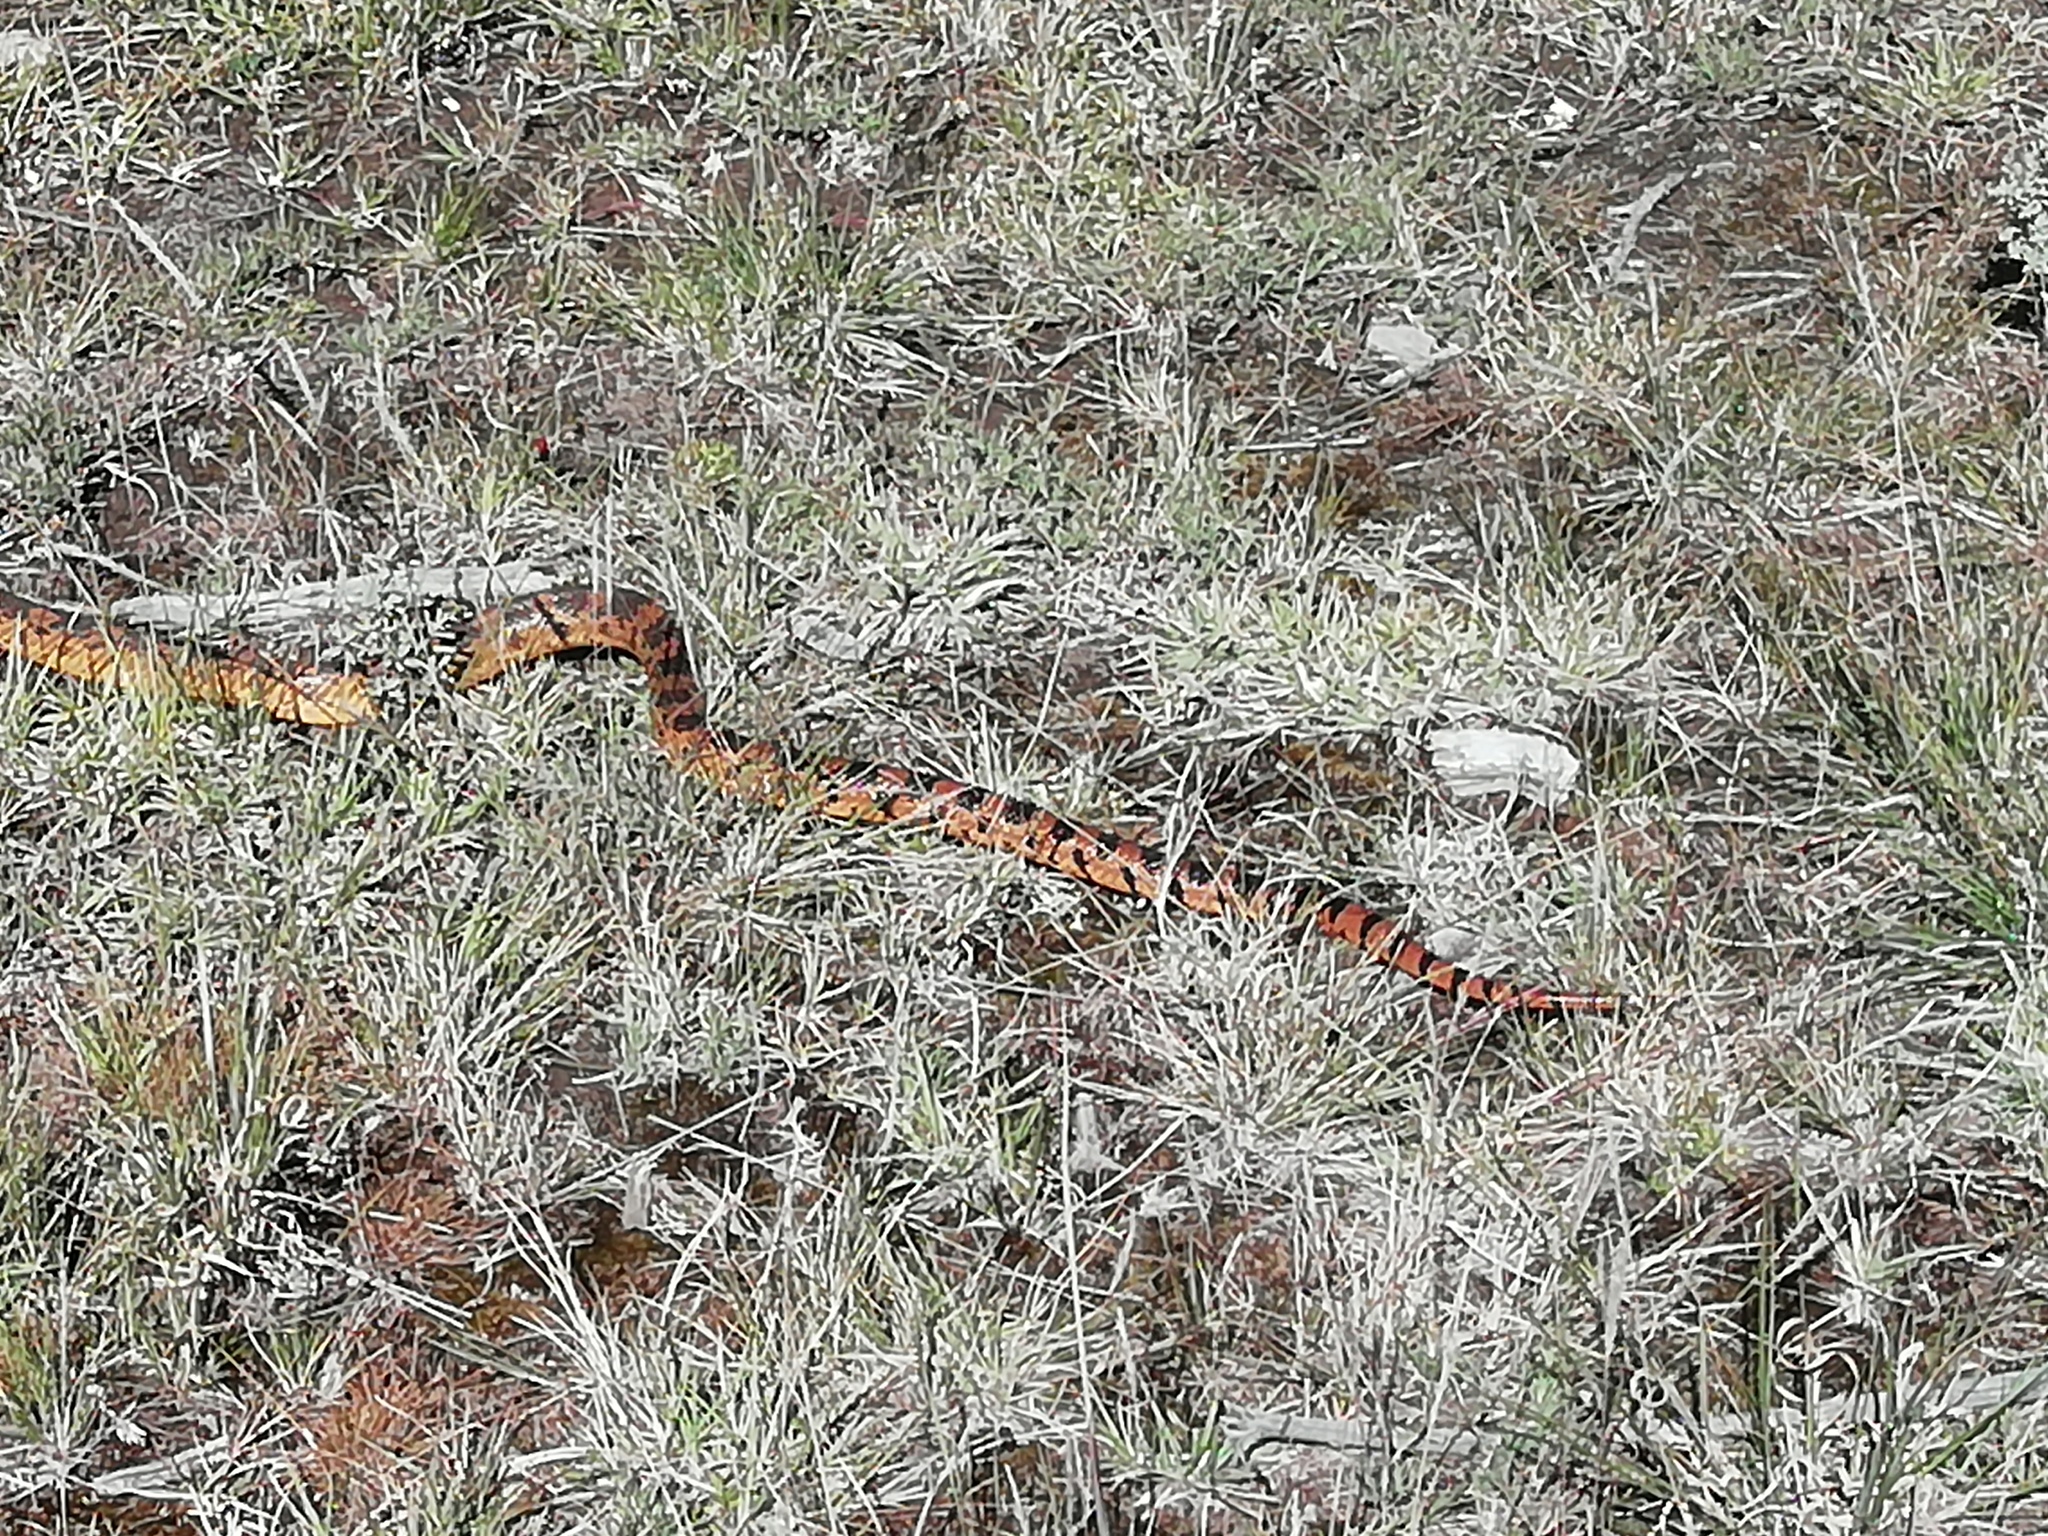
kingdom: Animalia
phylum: Chordata
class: Squamata
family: Colubridae
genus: Pituophis
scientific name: Pituophis deppei
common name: Mexican bull snake
